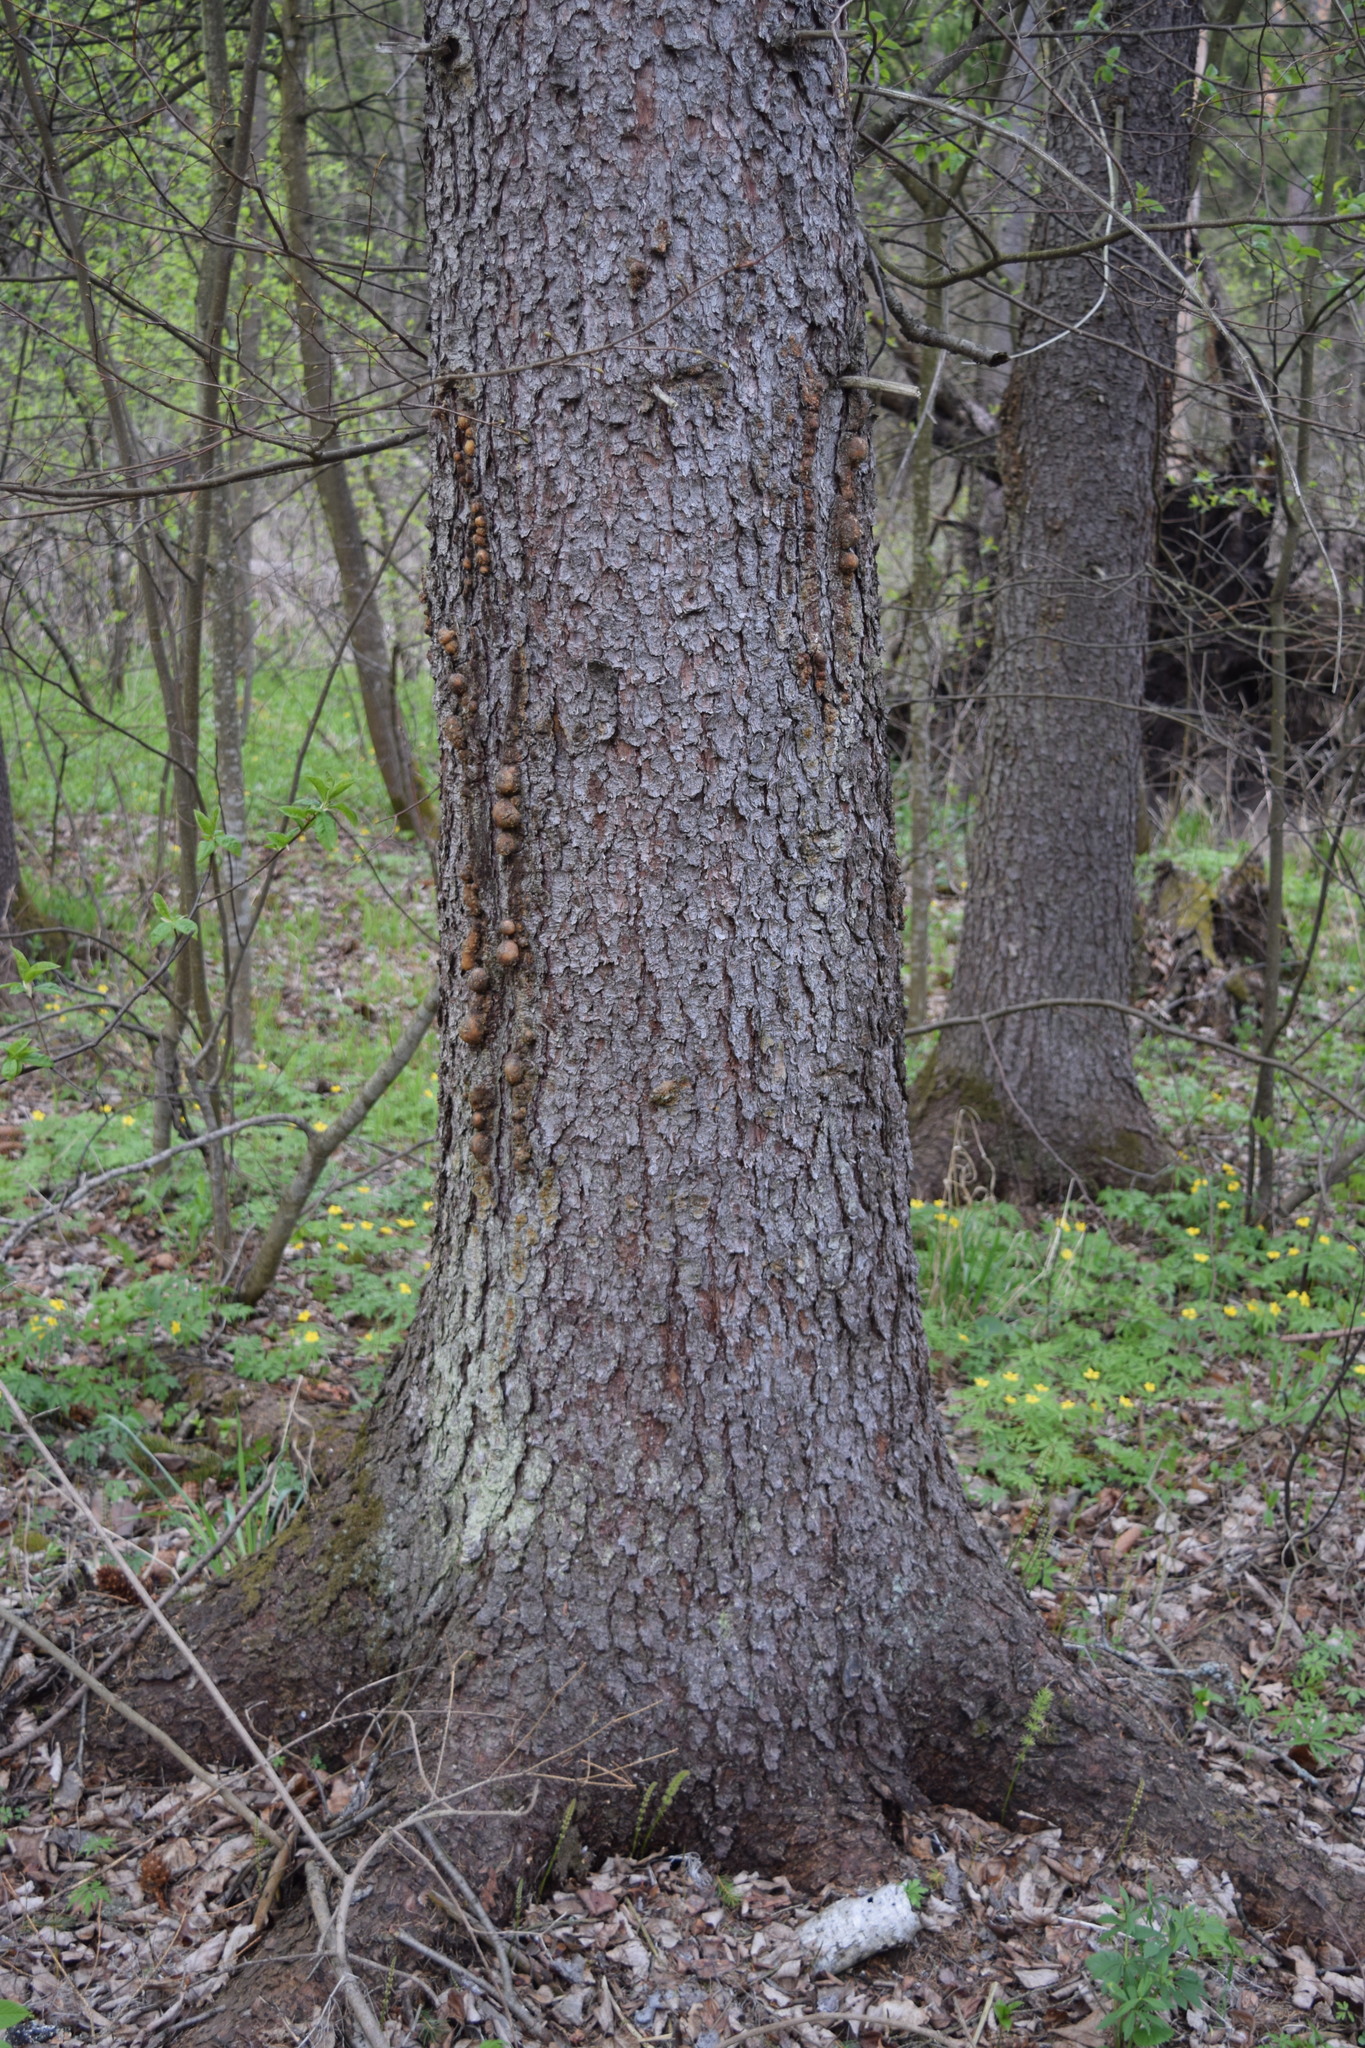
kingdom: Plantae
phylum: Tracheophyta
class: Pinopsida
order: Pinales
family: Pinaceae
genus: Picea
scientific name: Picea abies
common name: Norway spruce
